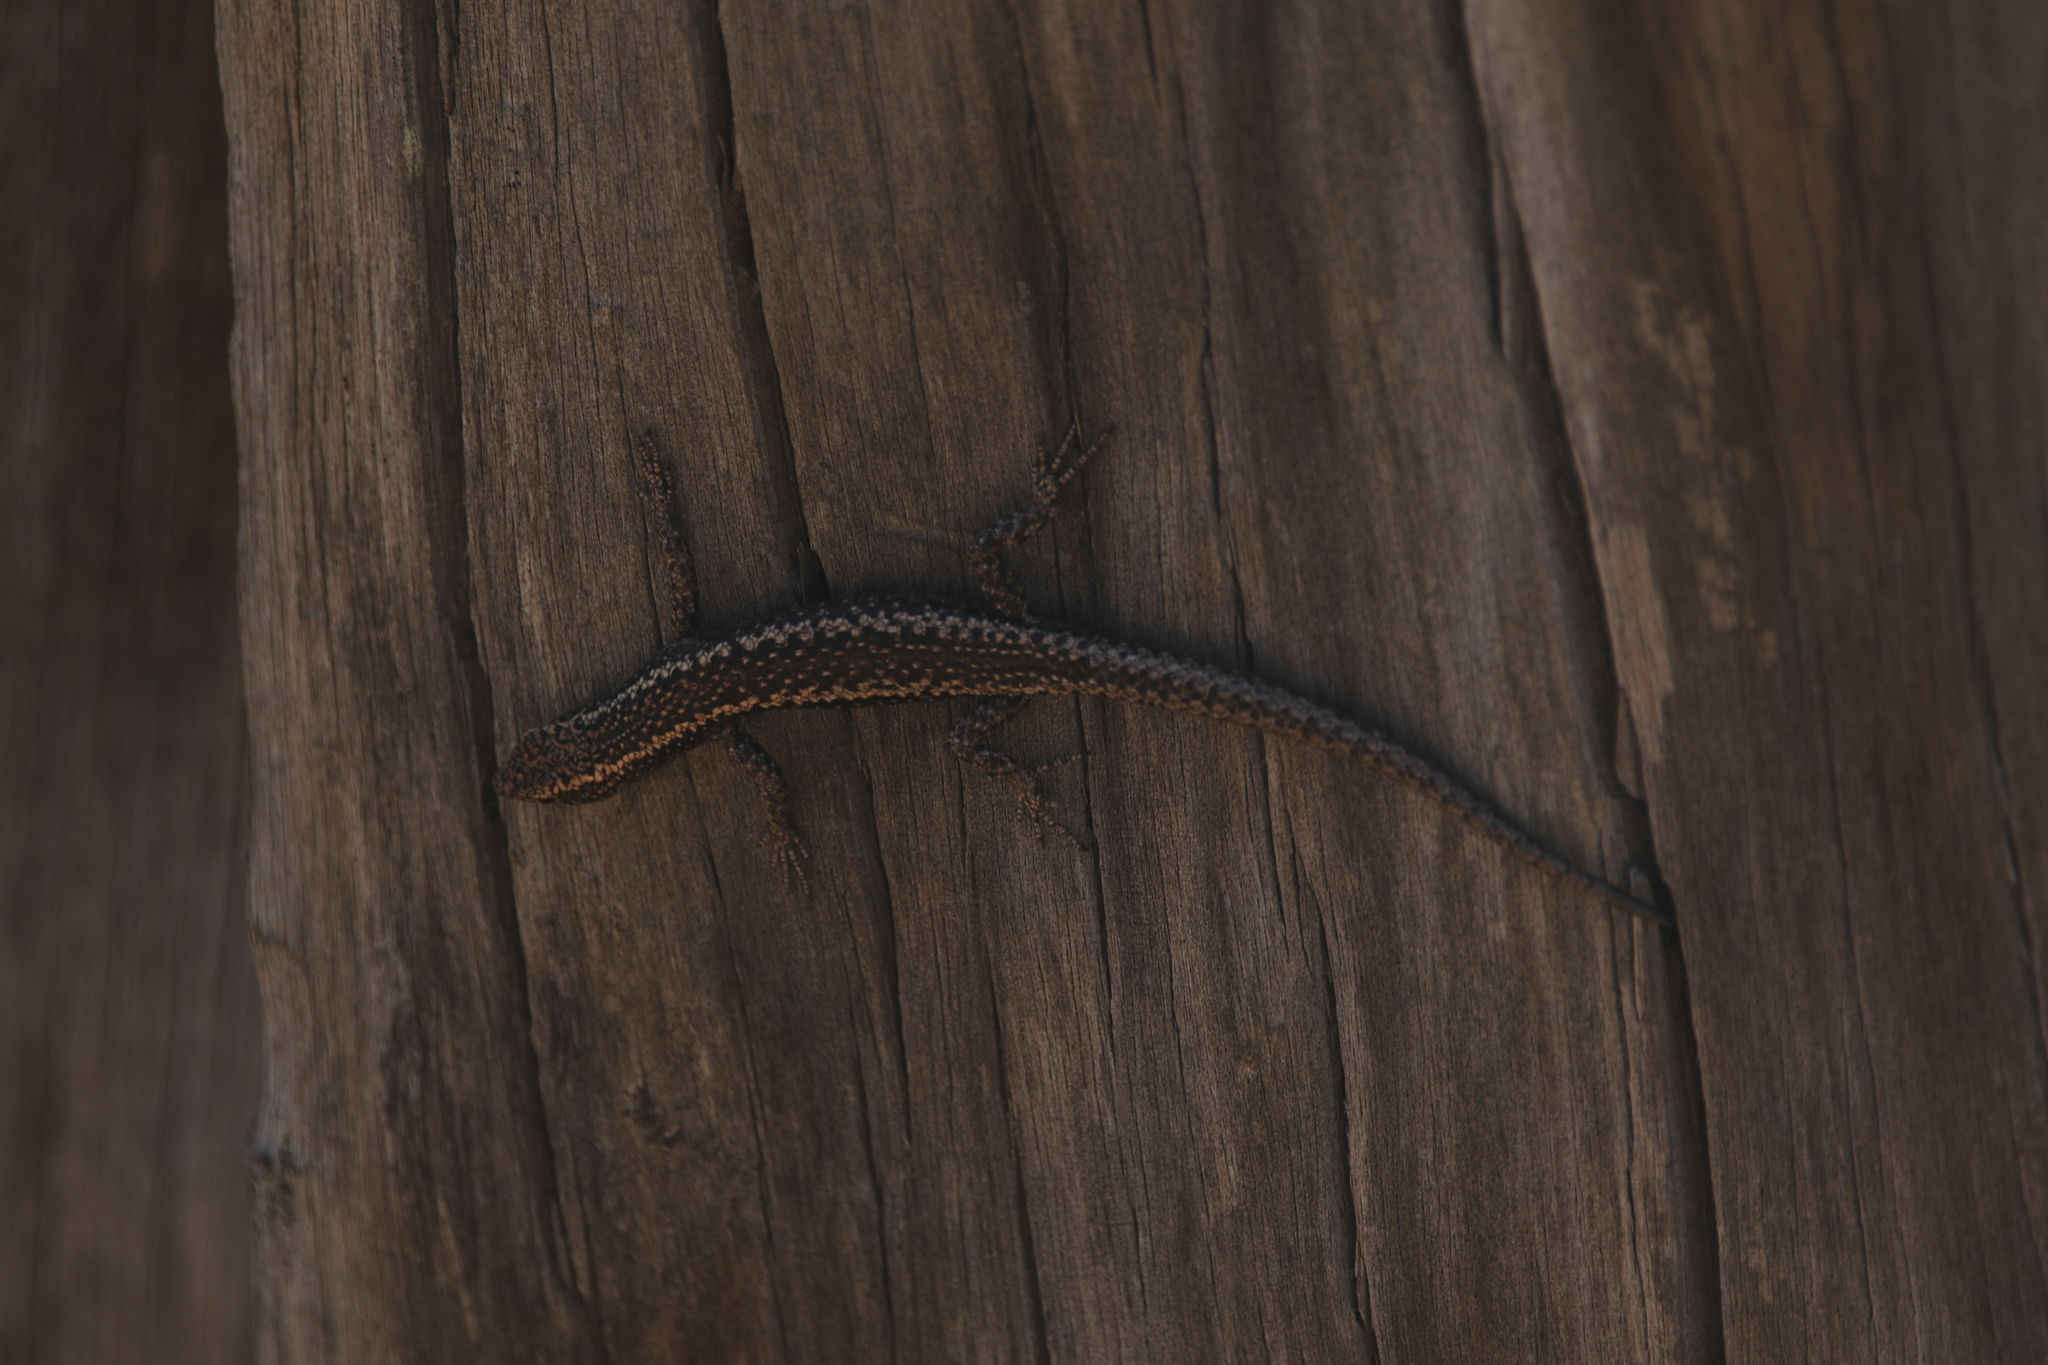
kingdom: Animalia
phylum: Chordata
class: Squamata
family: Scincidae
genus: Cryptoblepharus
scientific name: Cryptoblepharus pannosus
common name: Ragged snake-eyed skink
